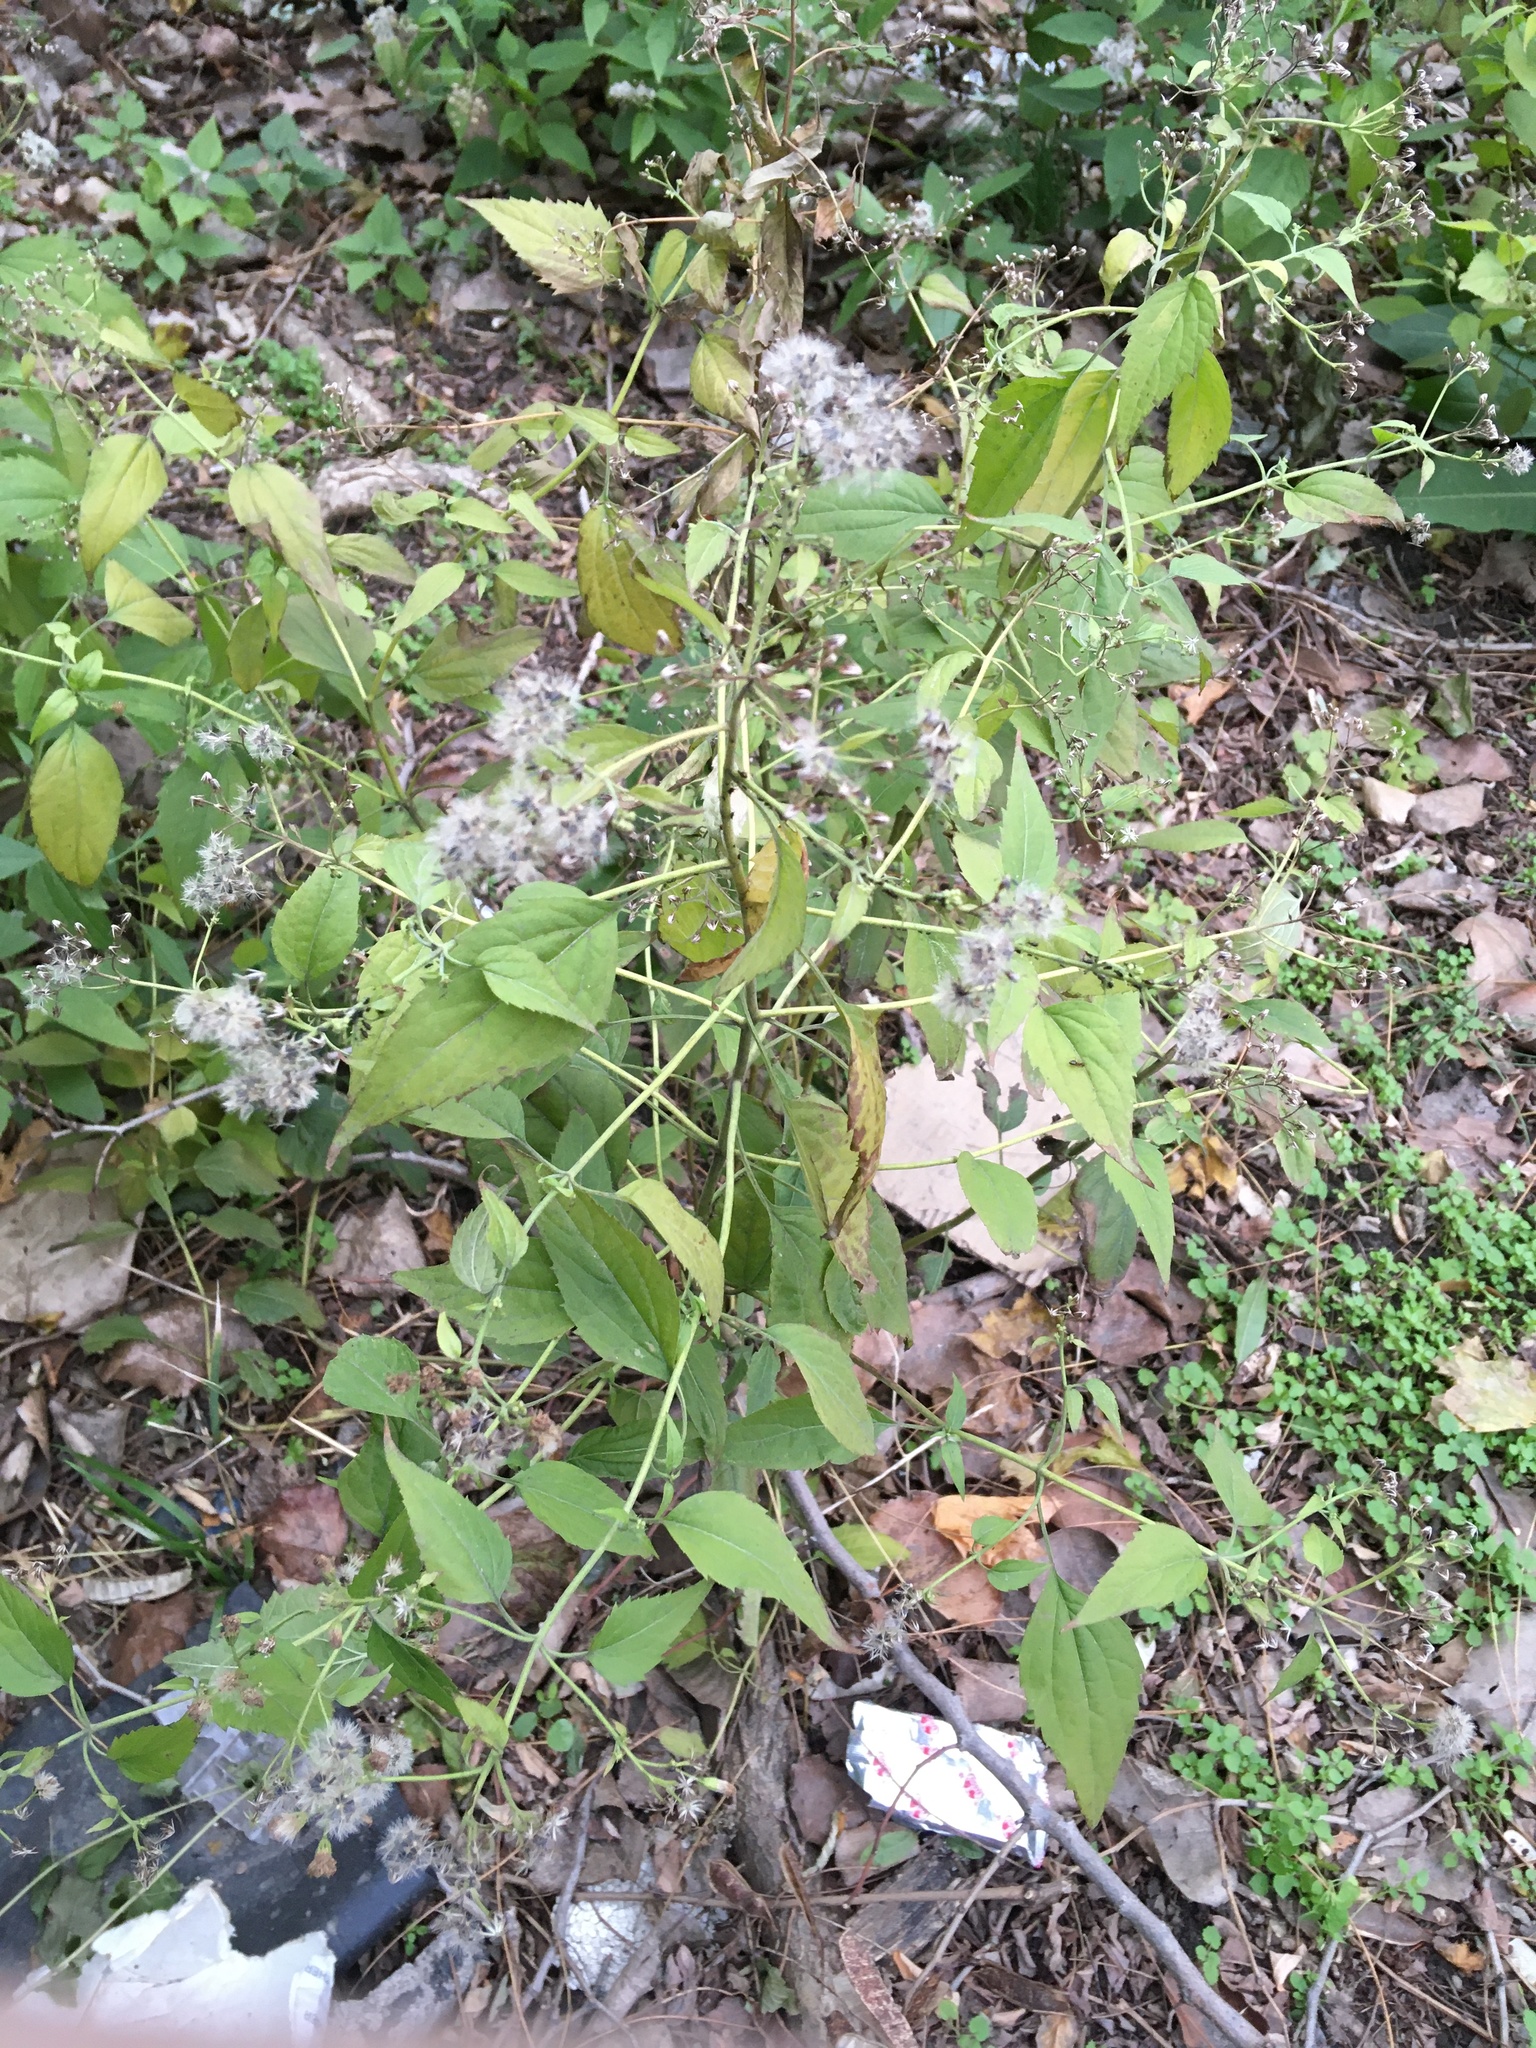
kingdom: Plantae
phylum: Tracheophyta
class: Magnoliopsida
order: Asterales
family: Asteraceae
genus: Ageratina
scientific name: Ageratina altissima
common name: White snakeroot
